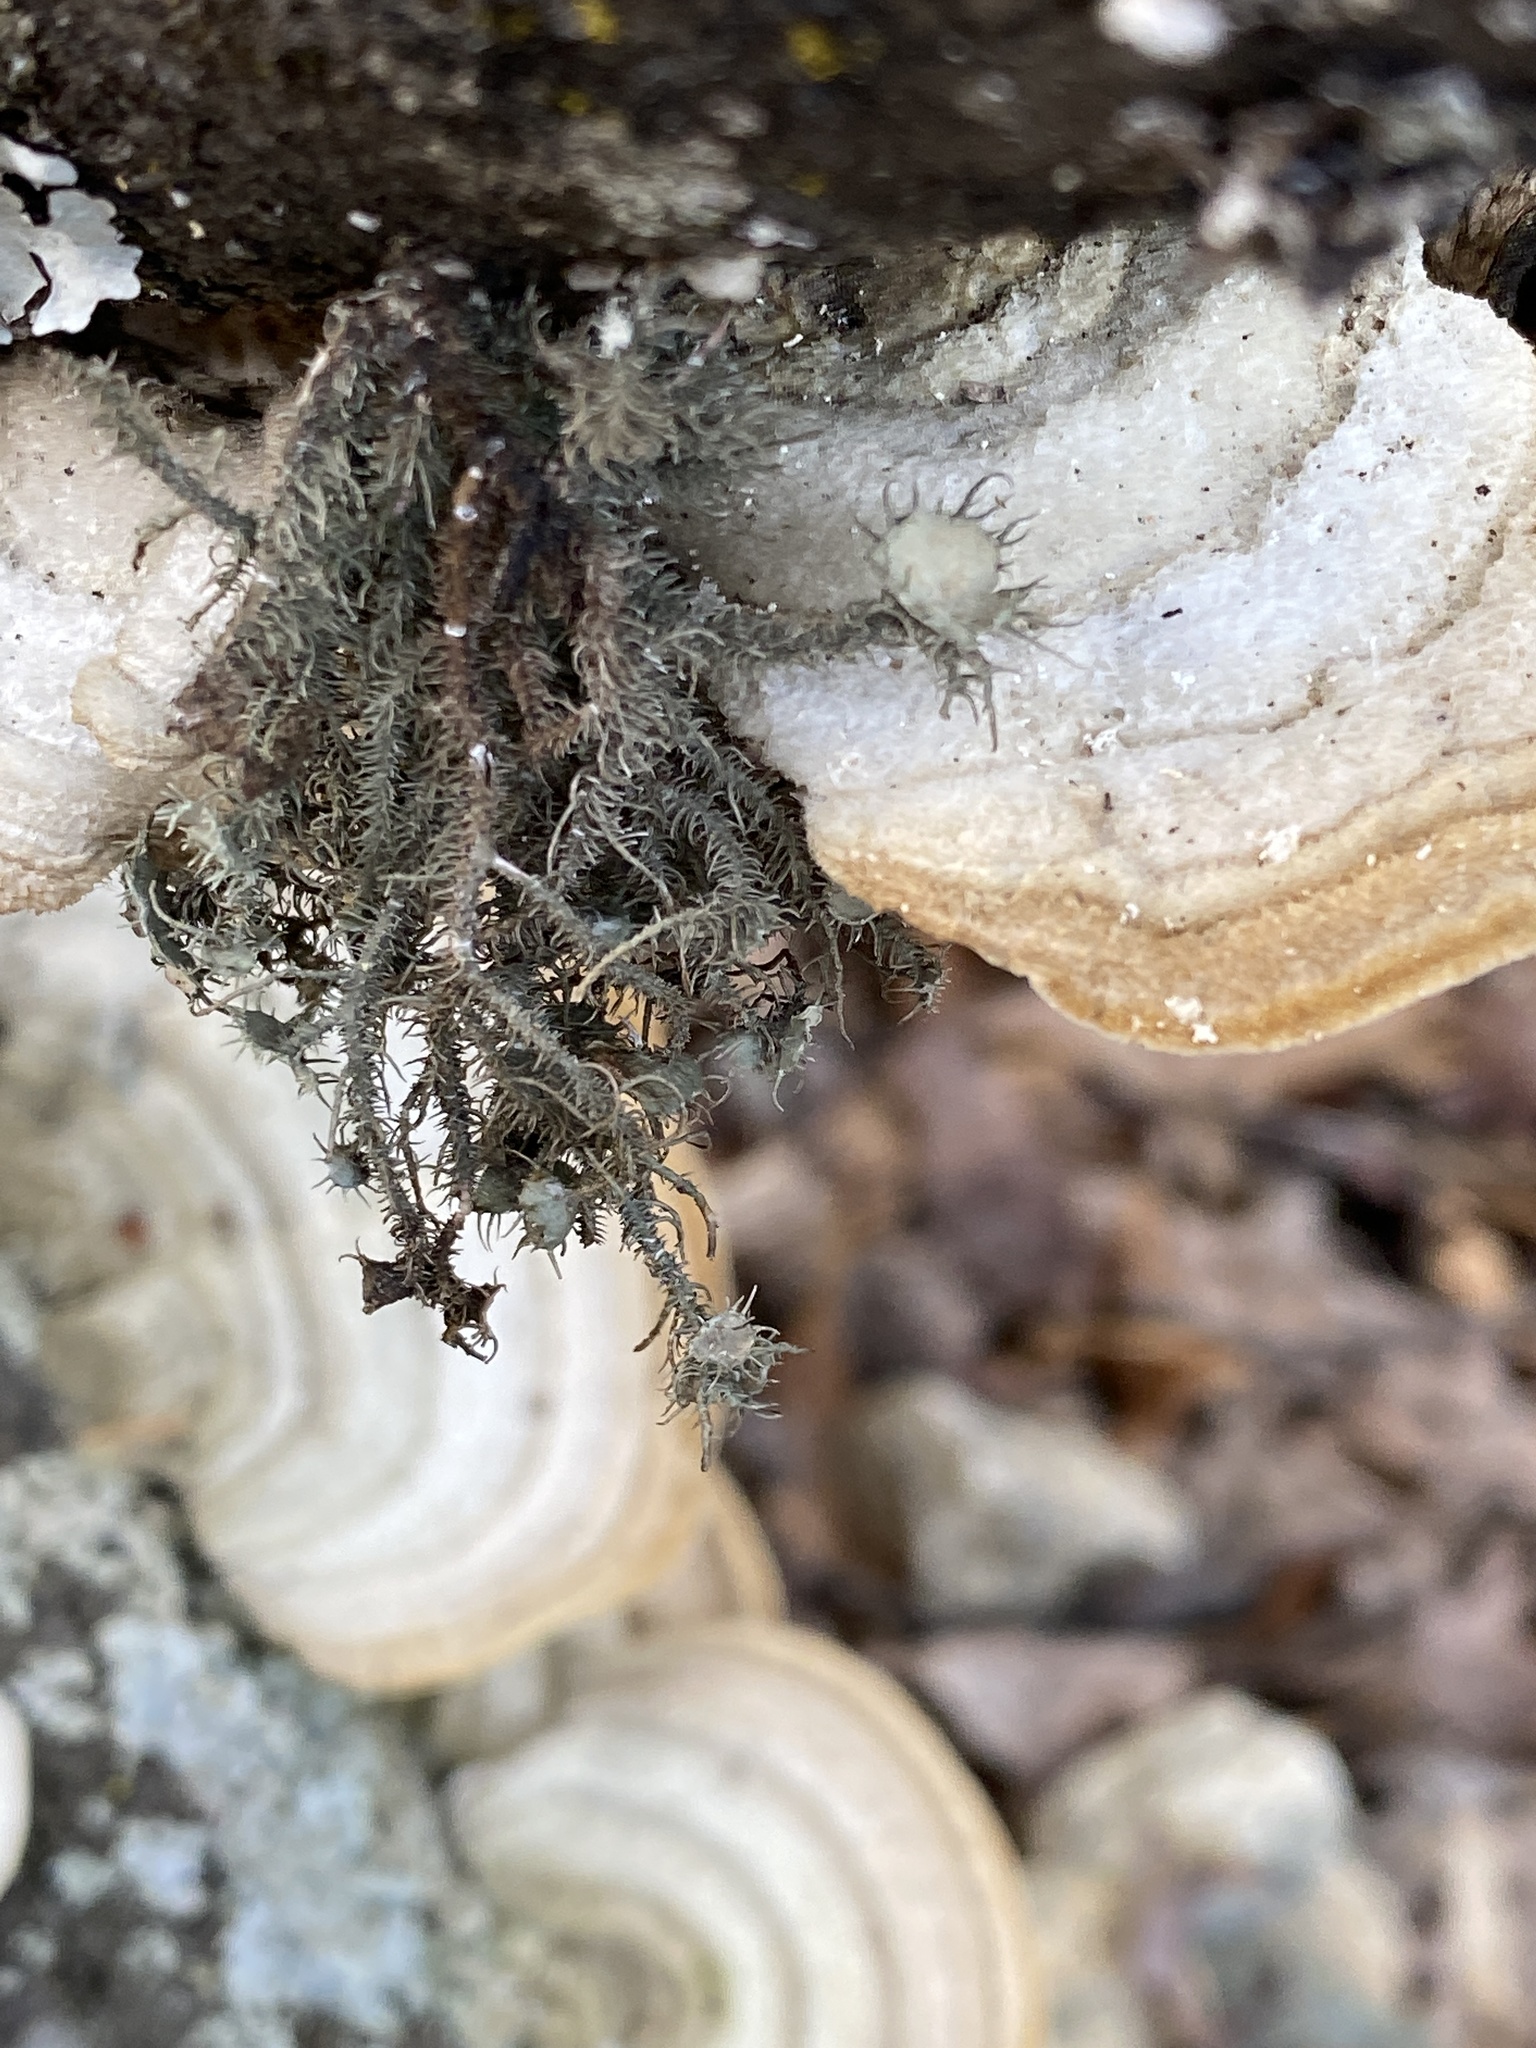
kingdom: Fungi
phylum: Ascomycota
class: Lecanoromycetes
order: Lecanorales
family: Parmeliaceae
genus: Usnea
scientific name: Usnea strigosa
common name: Bushy beard lichen
